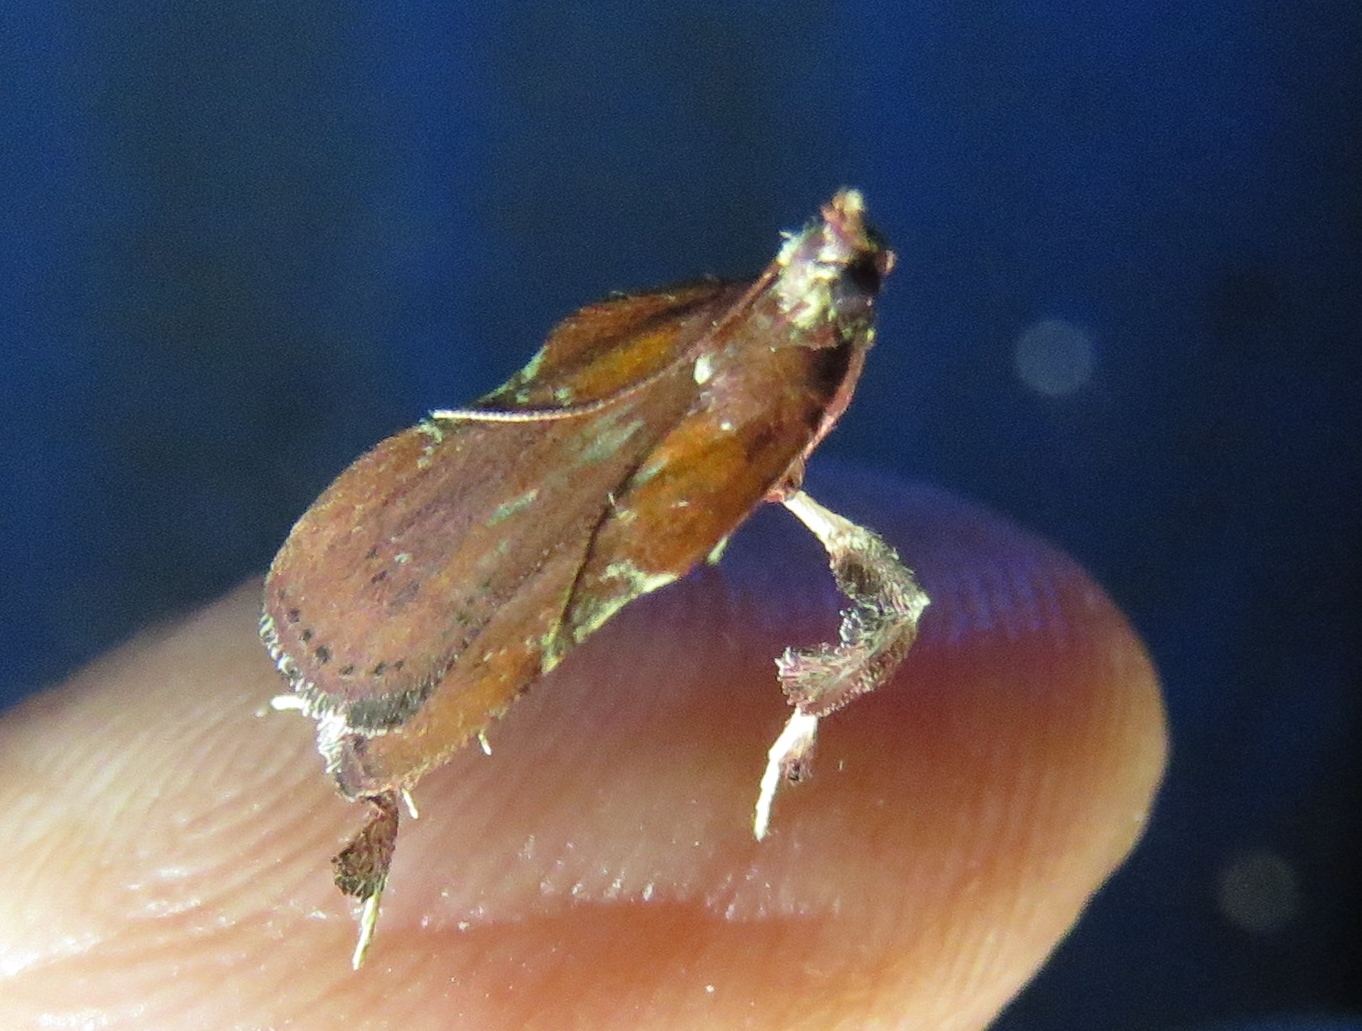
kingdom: Animalia
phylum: Arthropoda
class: Insecta
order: Lepidoptera
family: Pyralidae
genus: Galasa
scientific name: Galasa nigrinodis
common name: Boxwood leaftier moth
